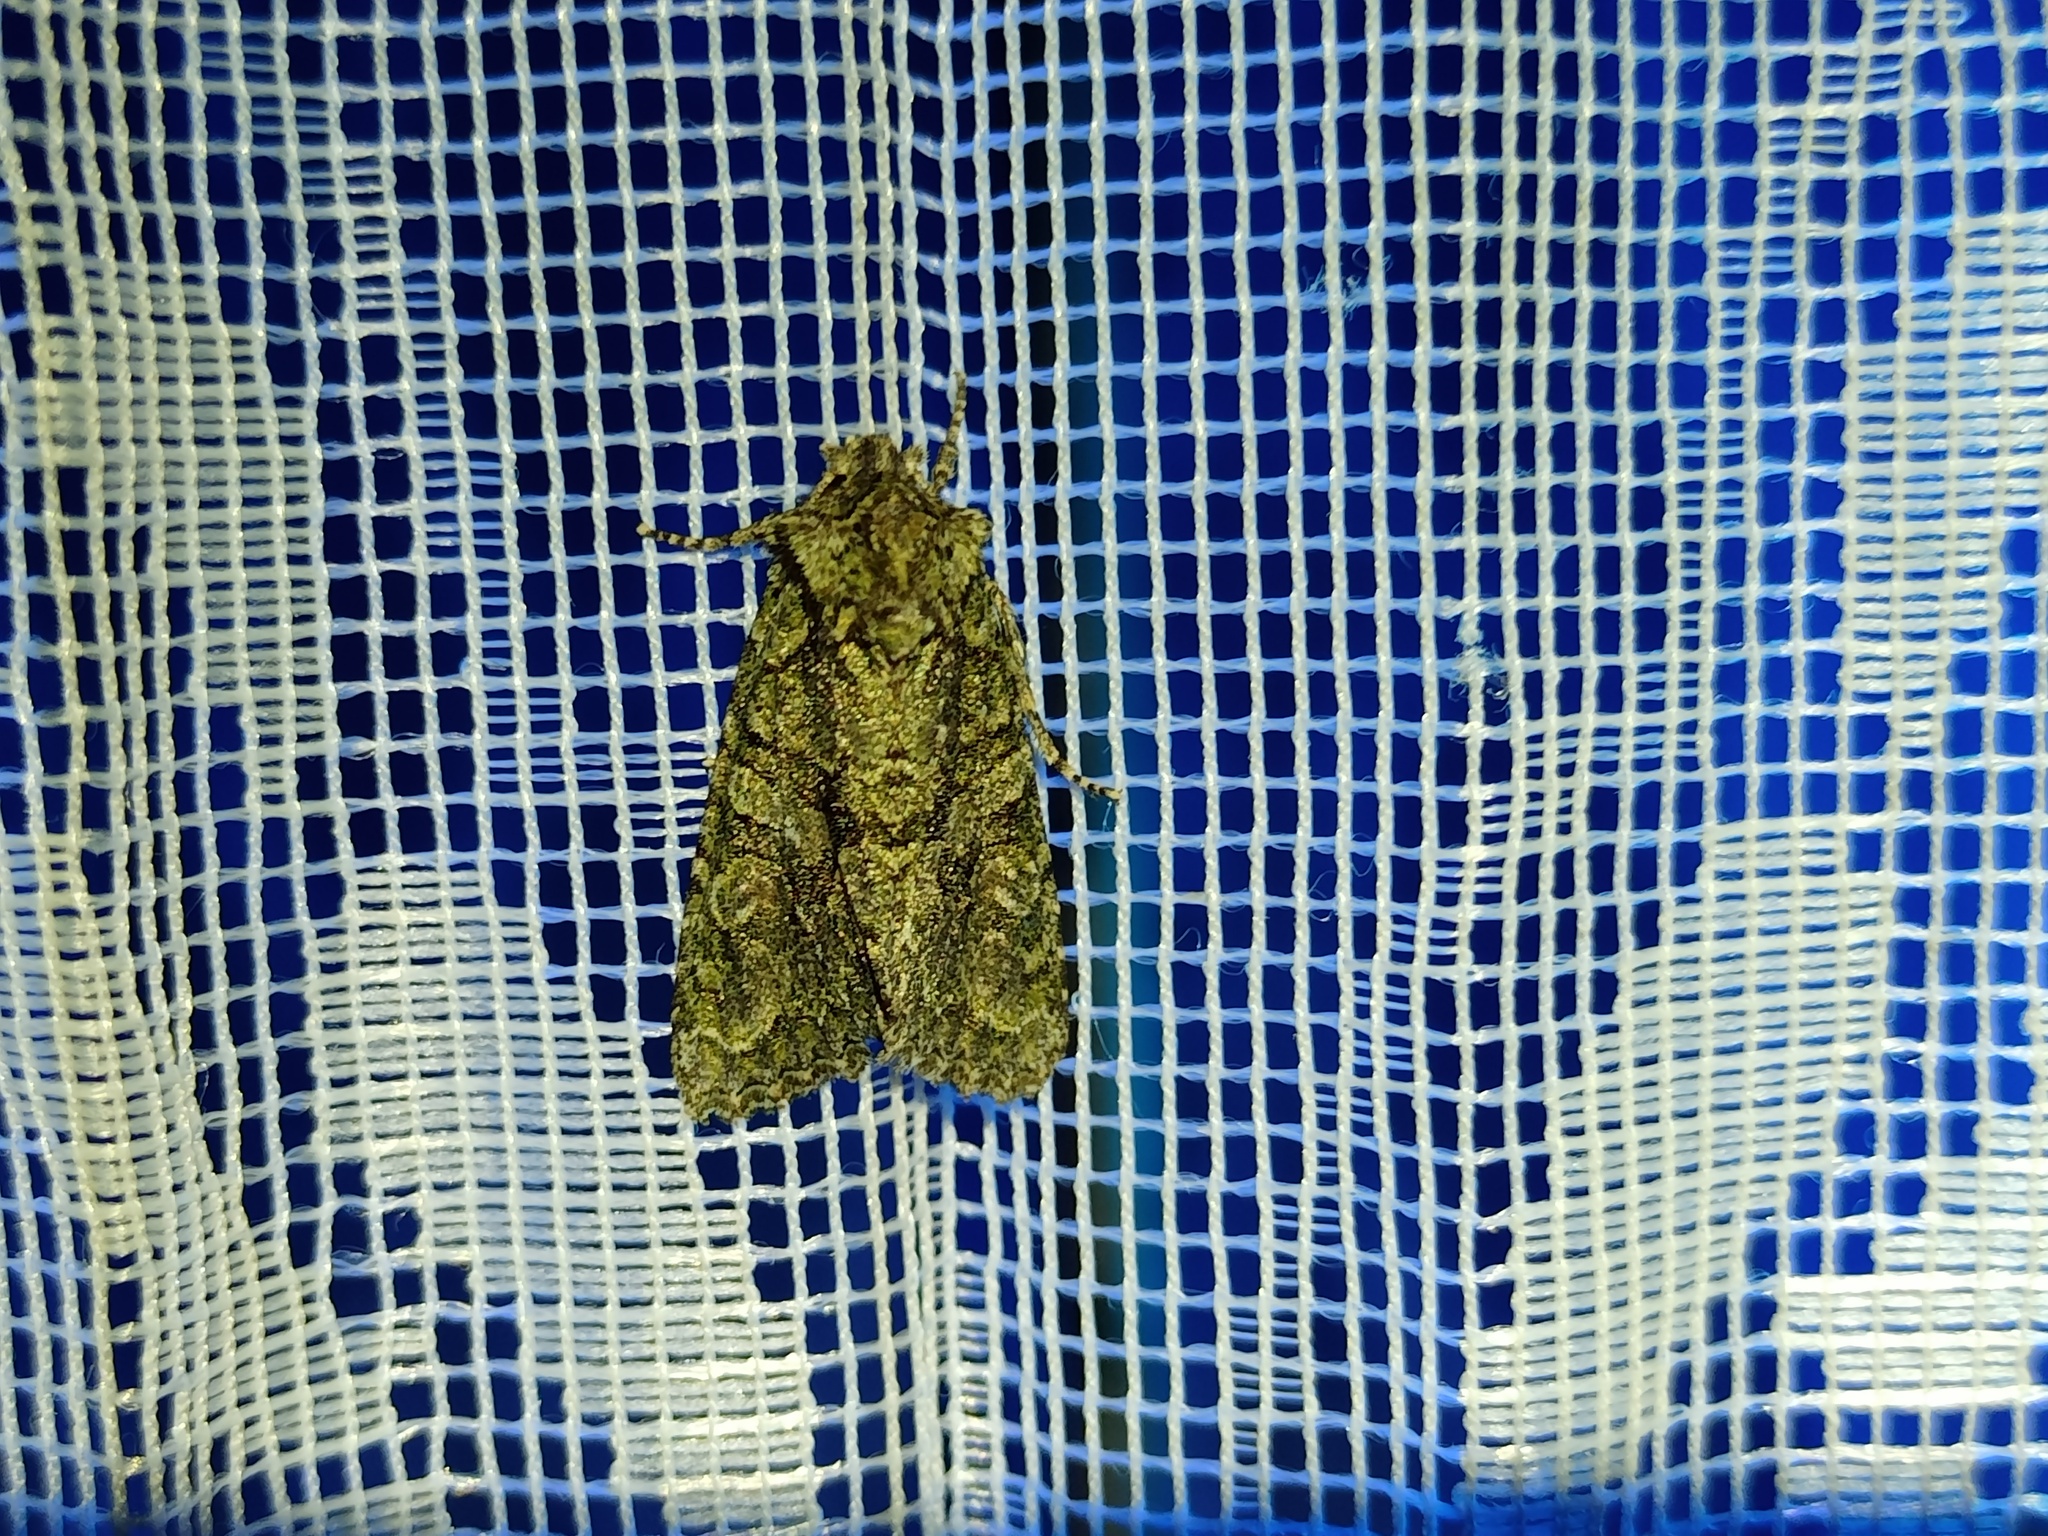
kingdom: Animalia
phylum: Arthropoda
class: Insecta
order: Lepidoptera
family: Noctuidae
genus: Dryobotodes
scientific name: Dryobotodes eremita
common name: Brindled green
